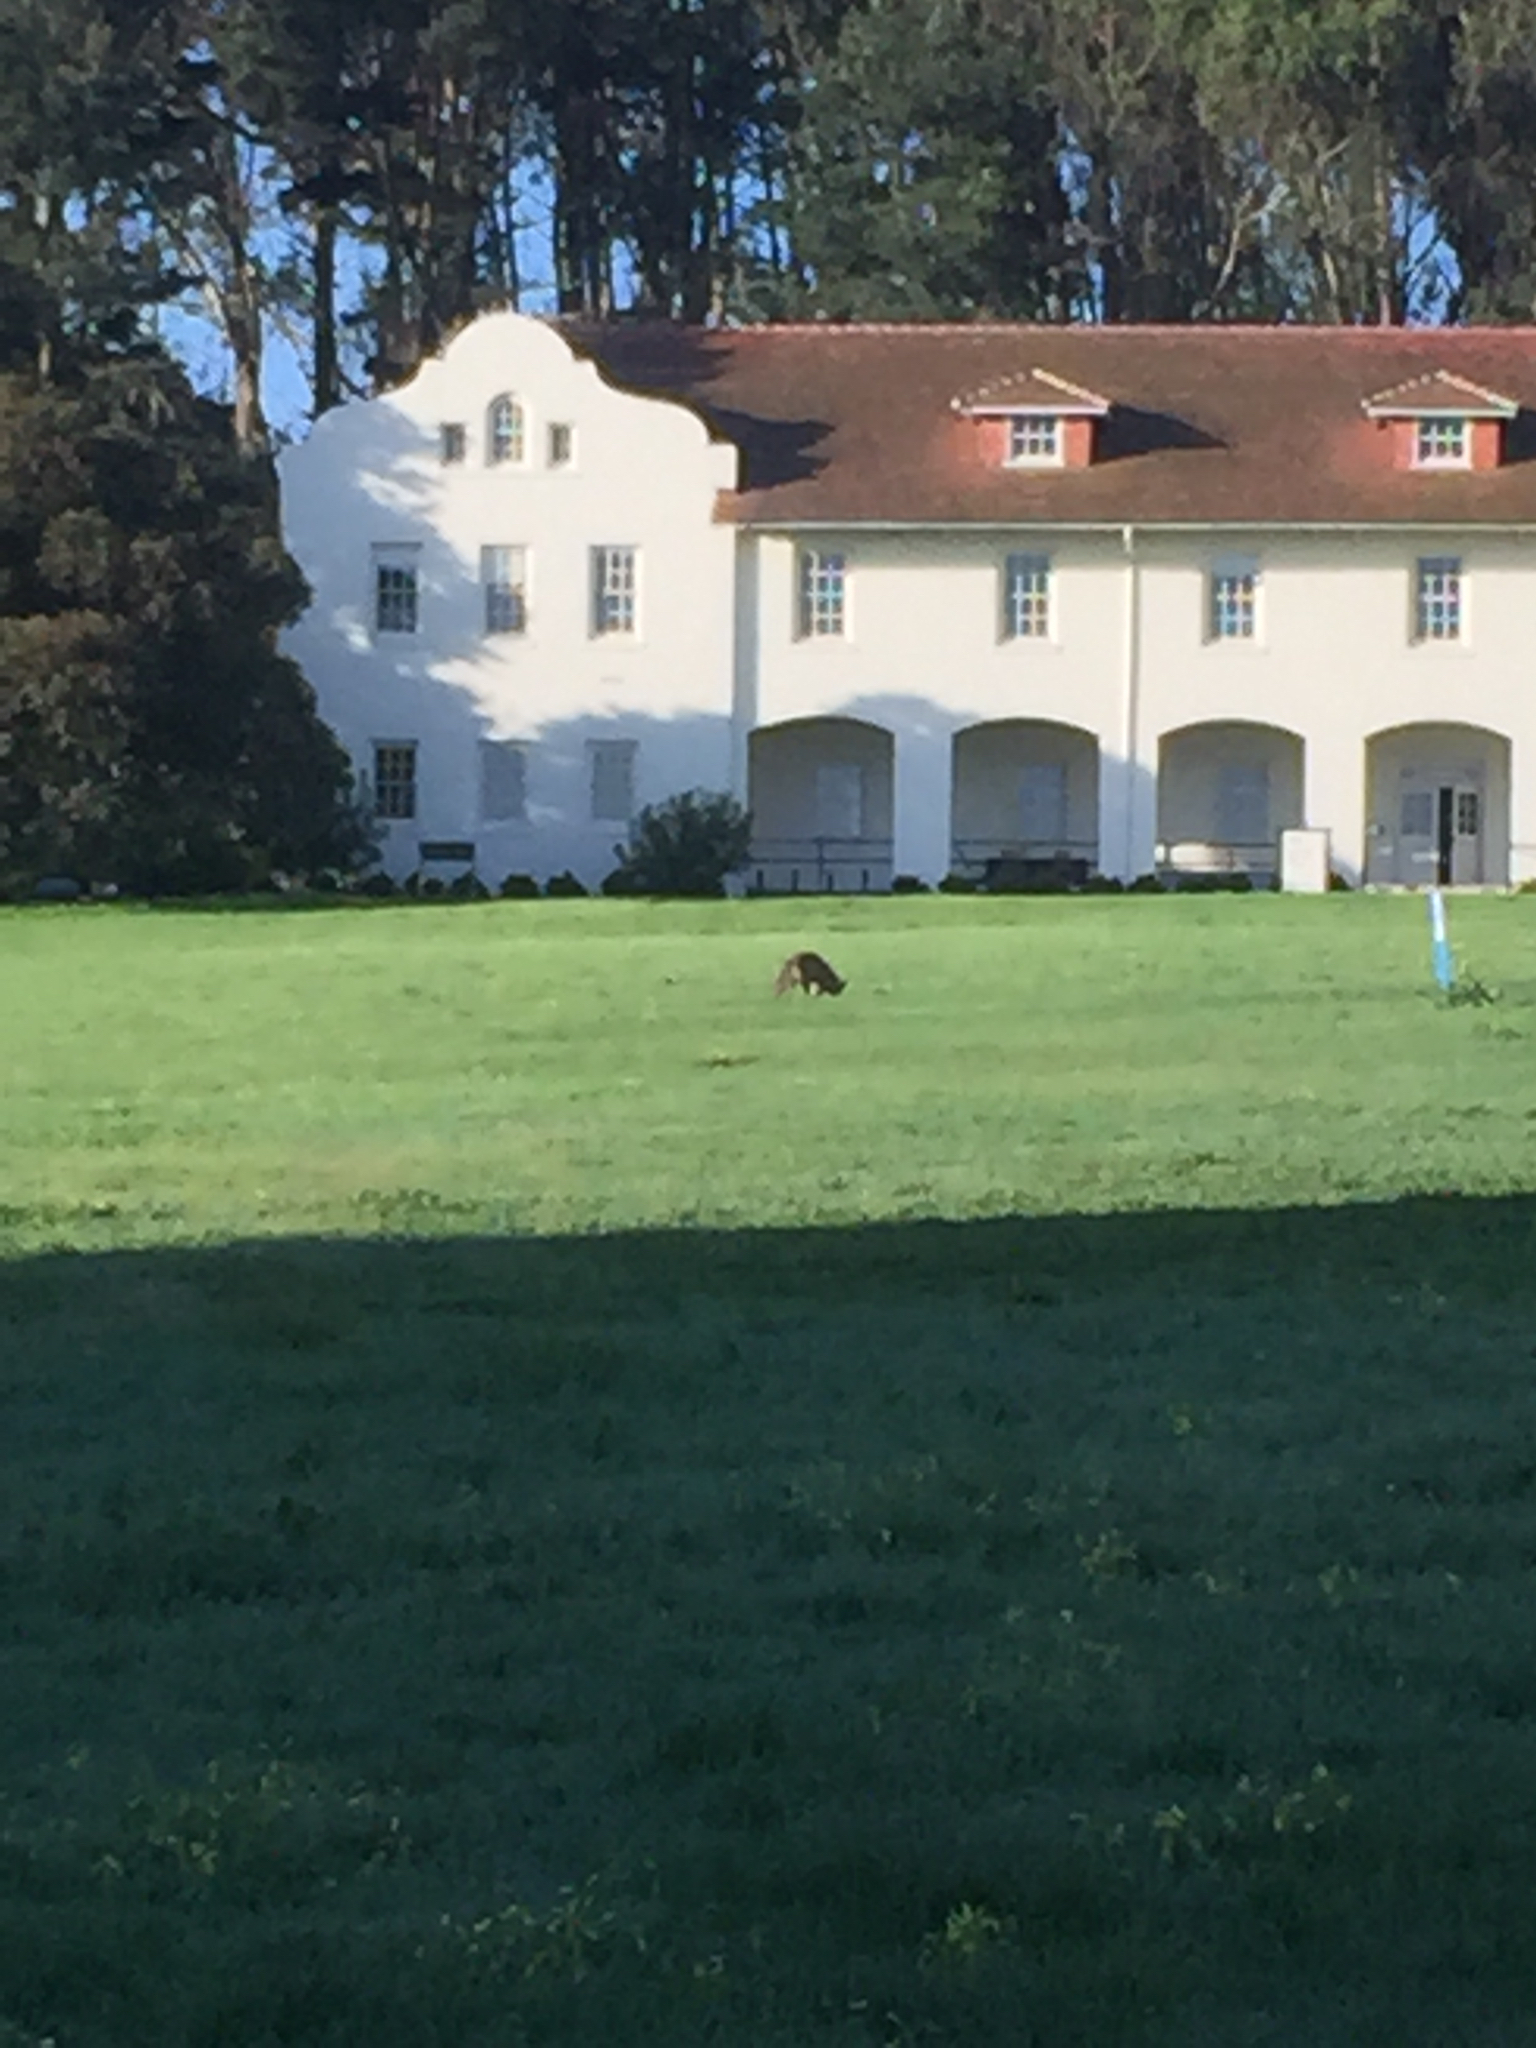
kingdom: Animalia
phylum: Chordata
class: Mammalia
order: Carnivora
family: Canidae
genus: Canis
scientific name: Canis latrans
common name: Coyote
